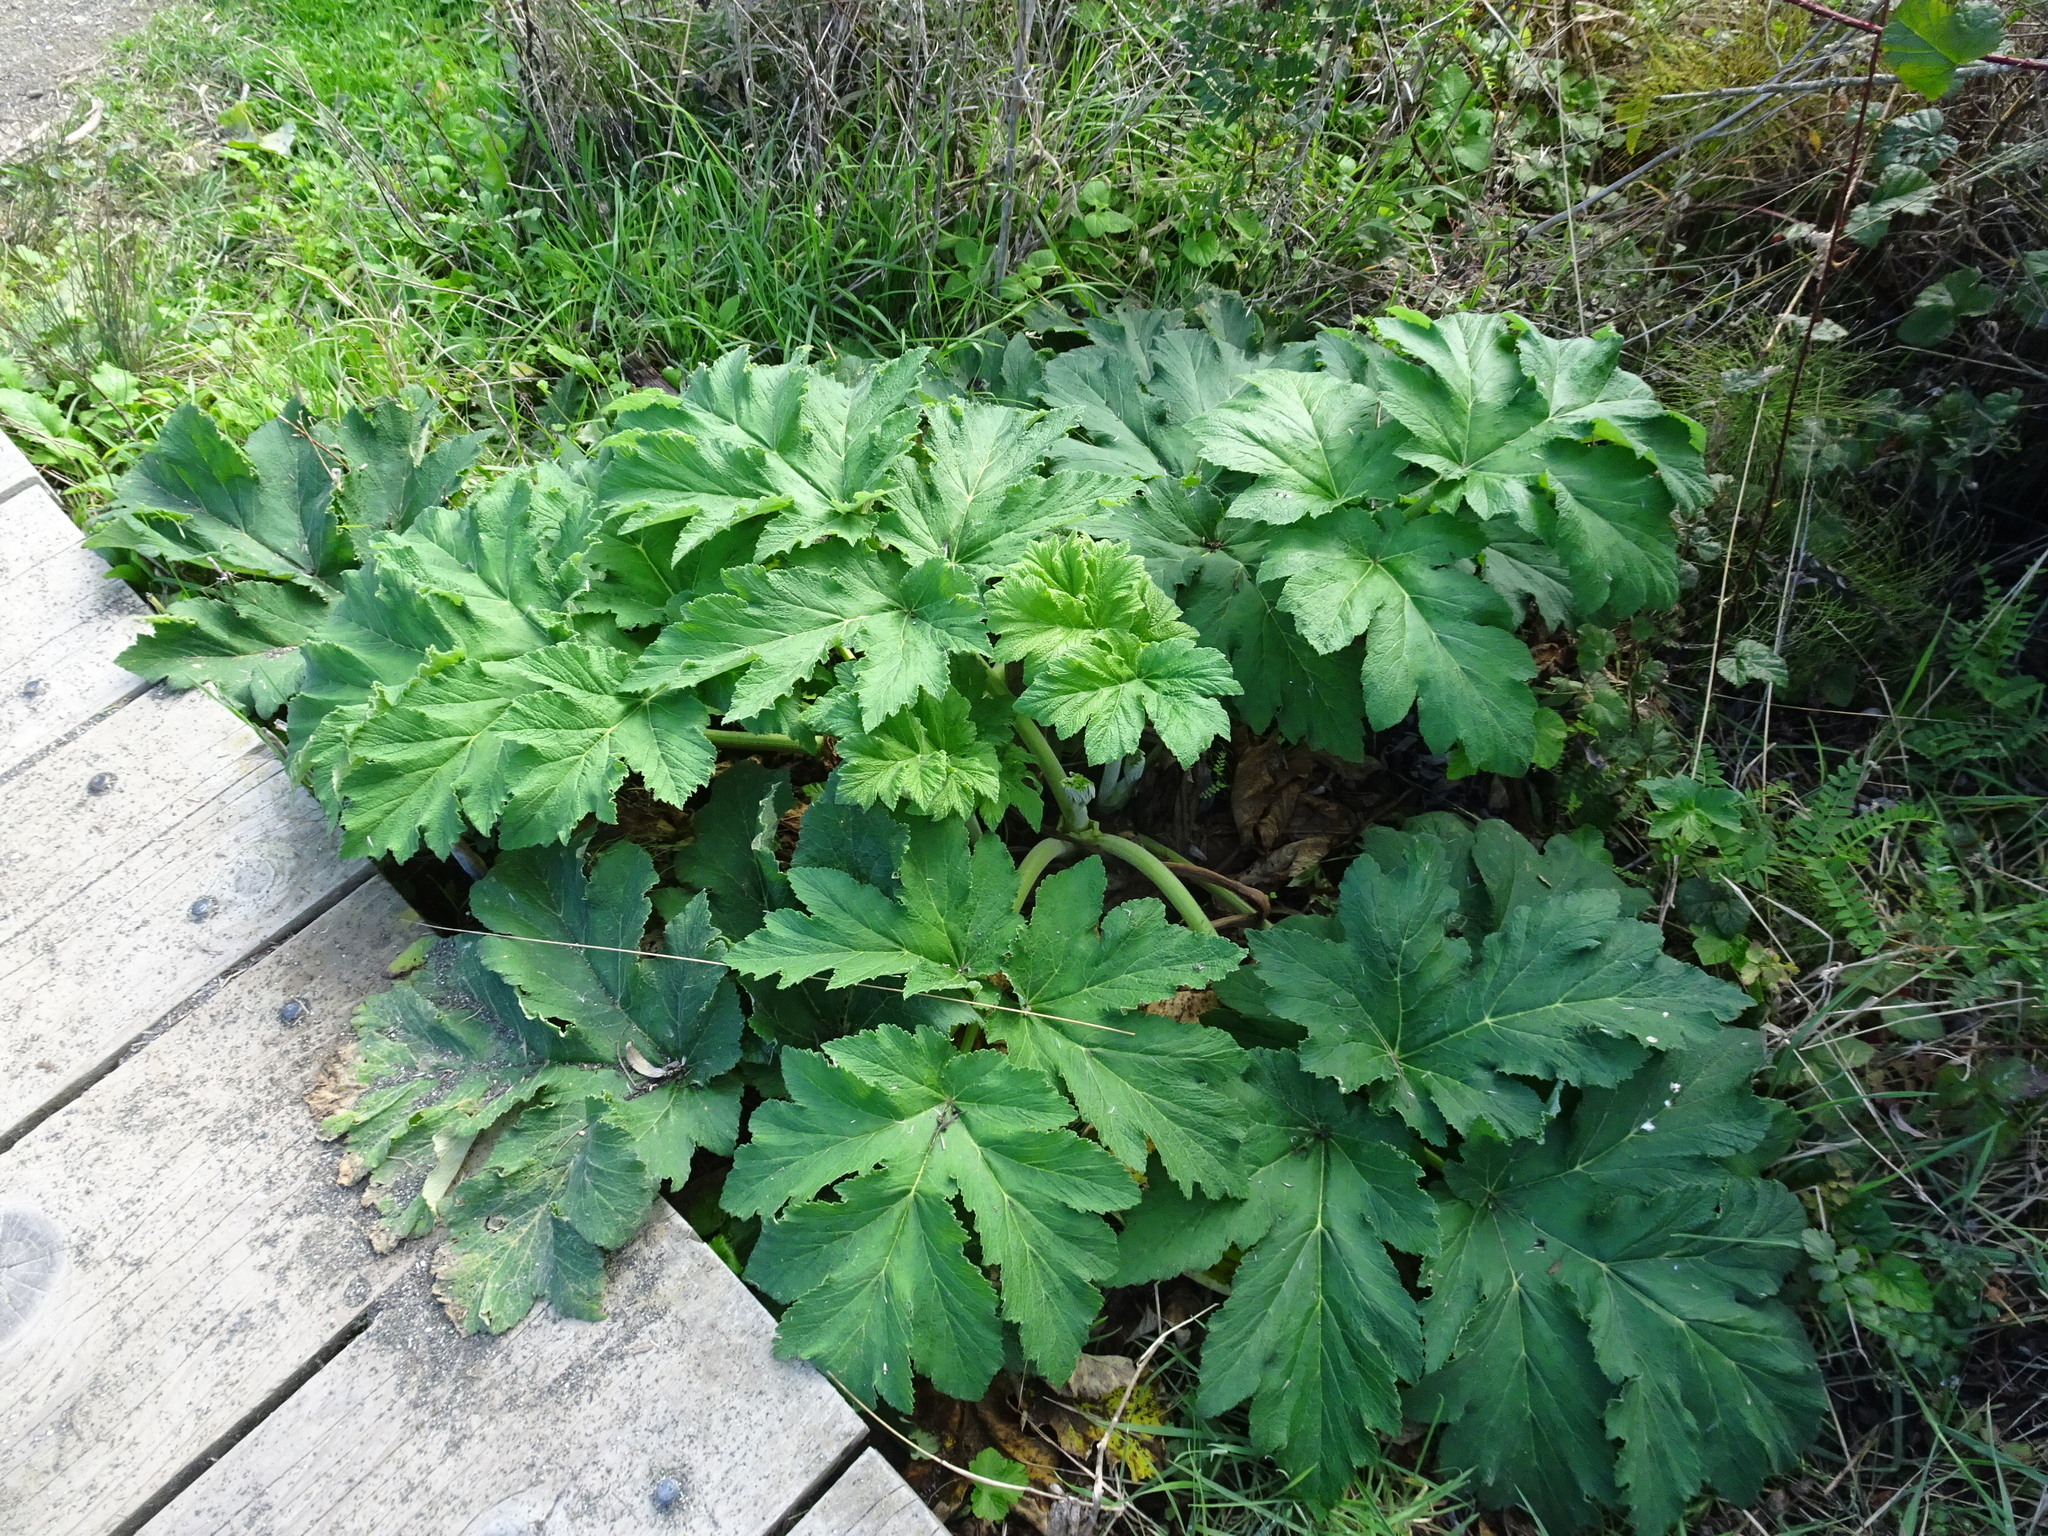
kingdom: Plantae
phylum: Tracheophyta
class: Magnoliopsida
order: Apiales
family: Apiaceae
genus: Heracleum
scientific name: Heracleum maximum
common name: American cow parsnip
